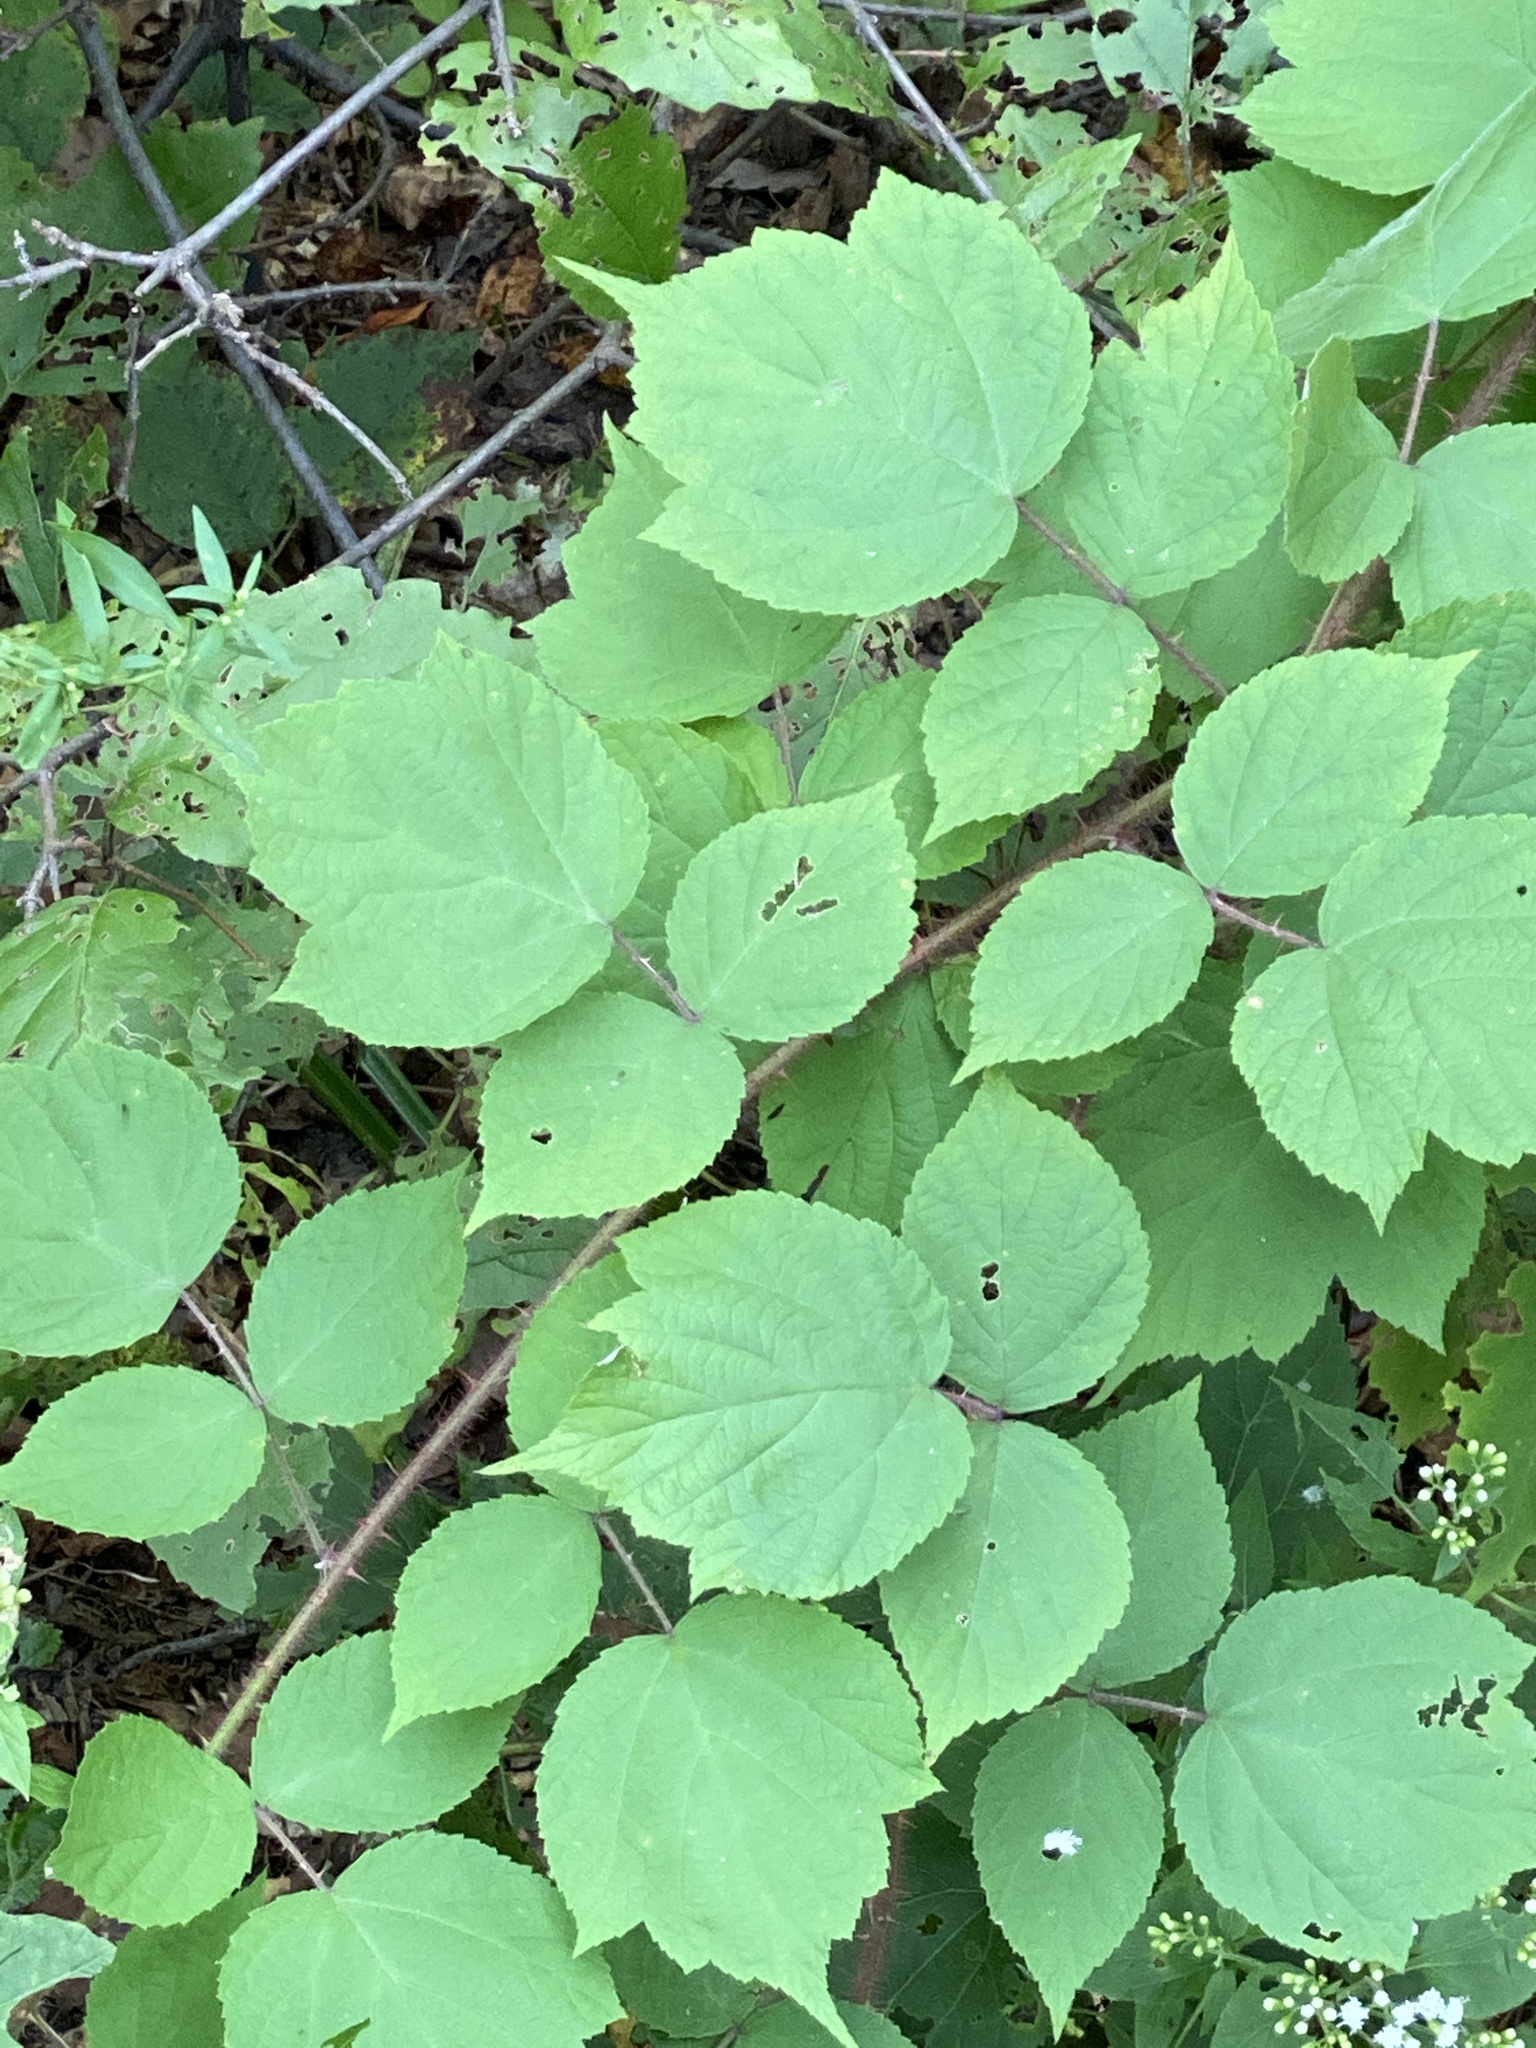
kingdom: Plantae
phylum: Tracheophyta
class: Magnoliopsida
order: Rosales
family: Rosaceae
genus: Rubus
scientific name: Rubus phoenicolasius
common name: Japanese wineberry
